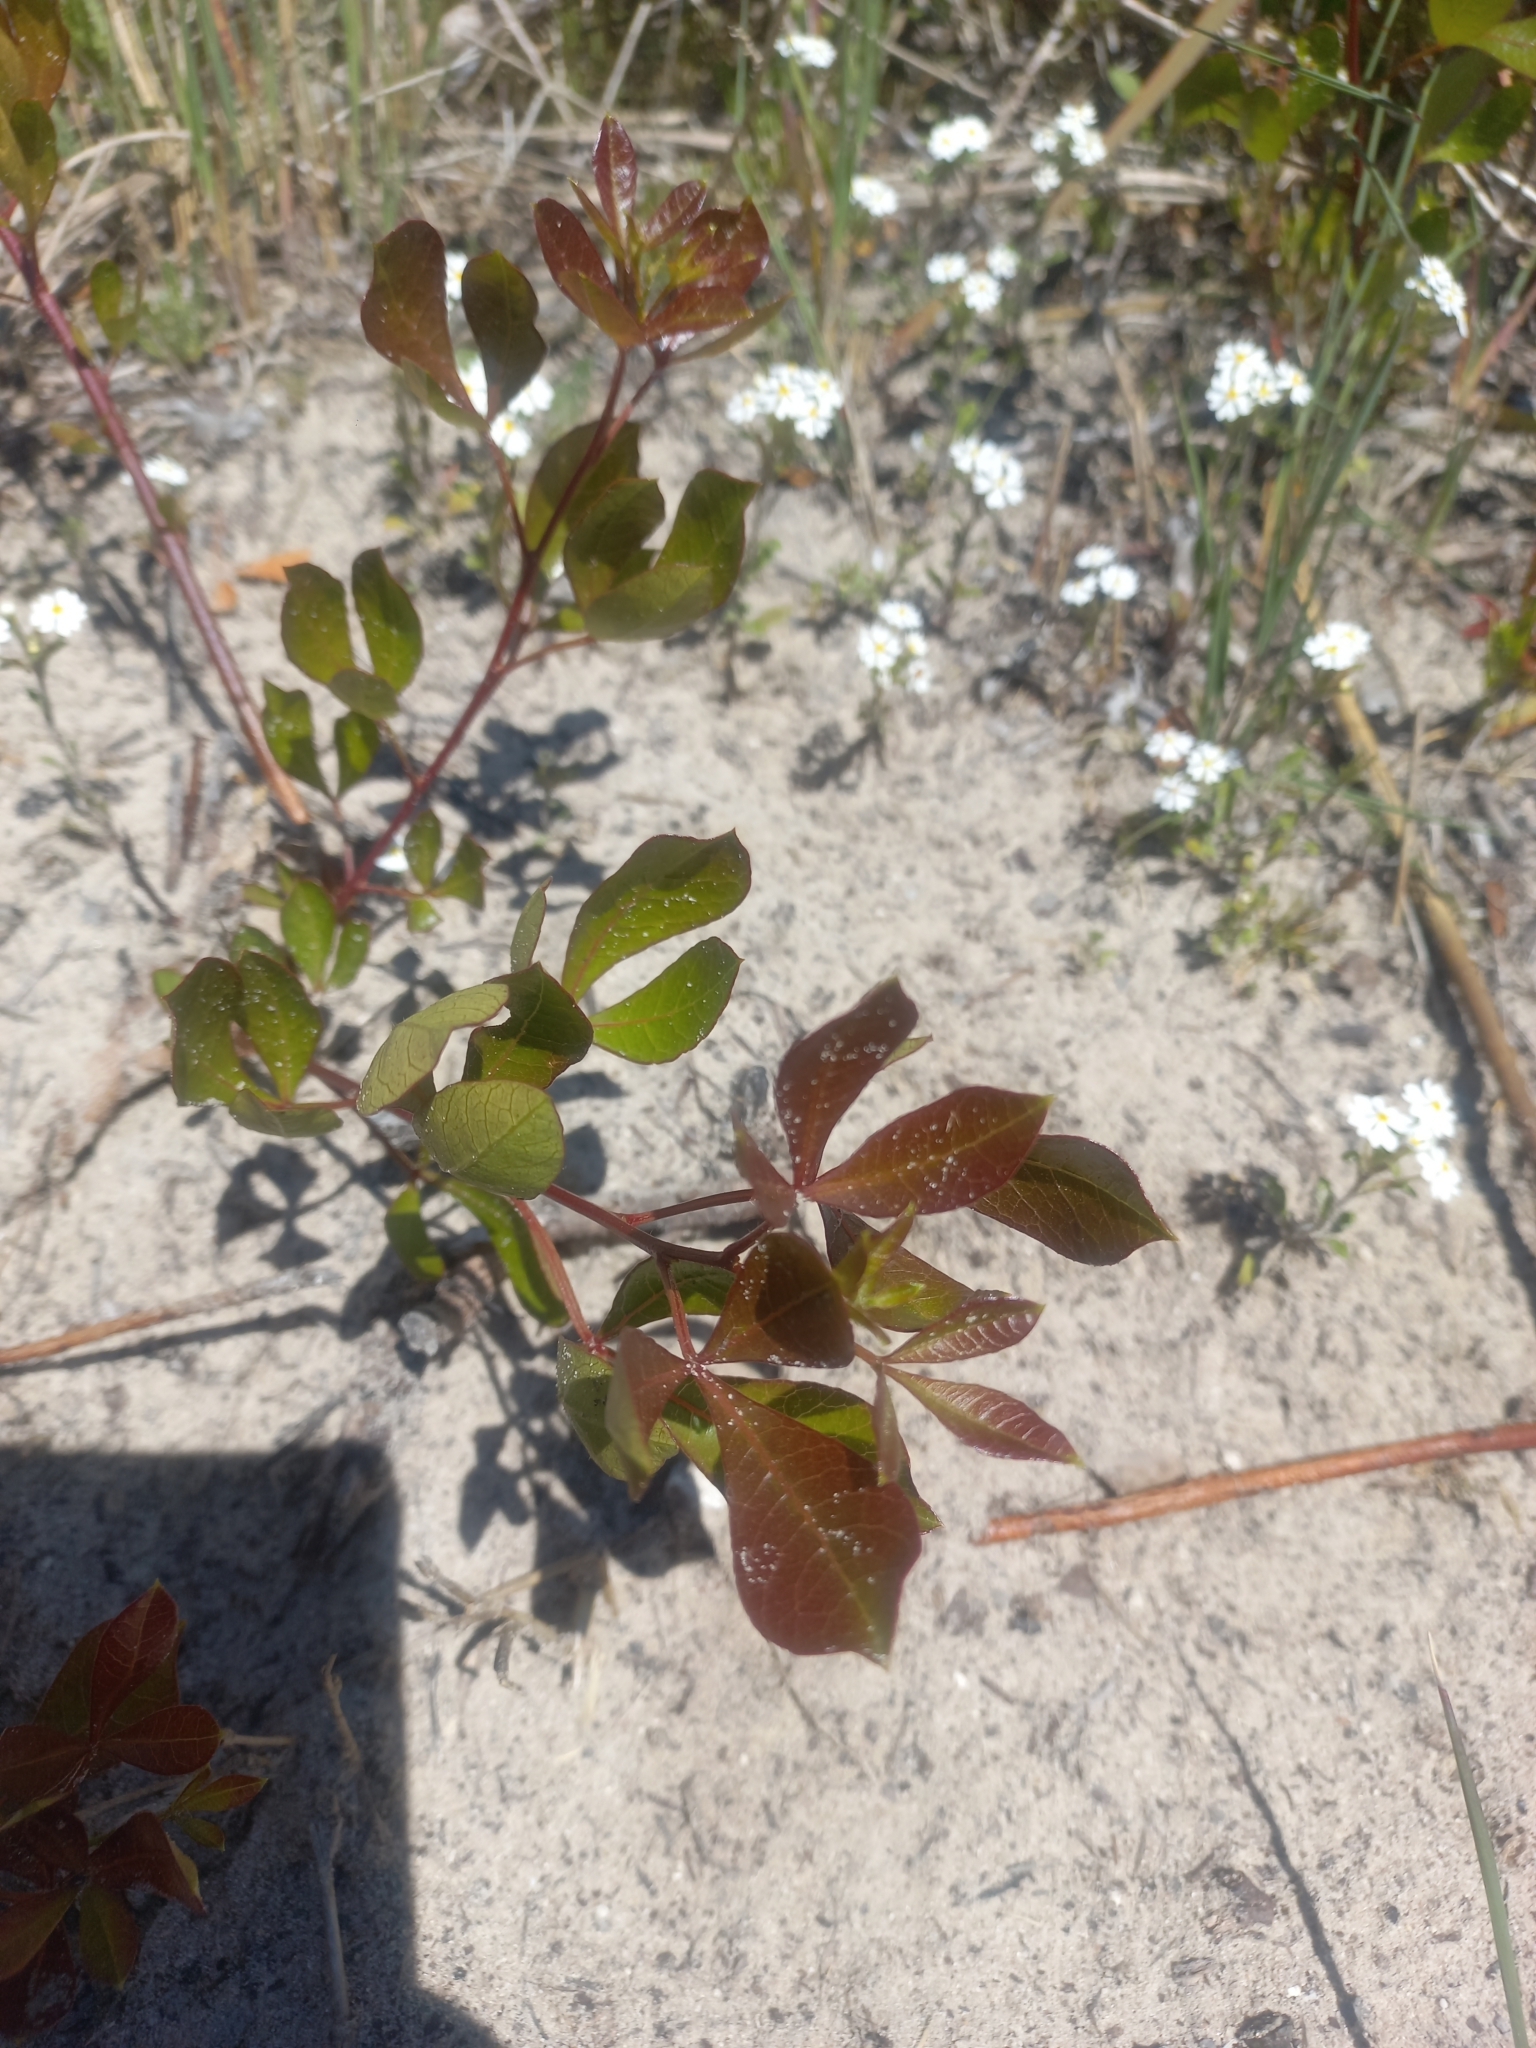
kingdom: Plantae
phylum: Tracheophyta
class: Magnoliopsida
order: Sapindales
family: Anacardiaceae
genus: Searsia
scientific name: Searsia laevigata
